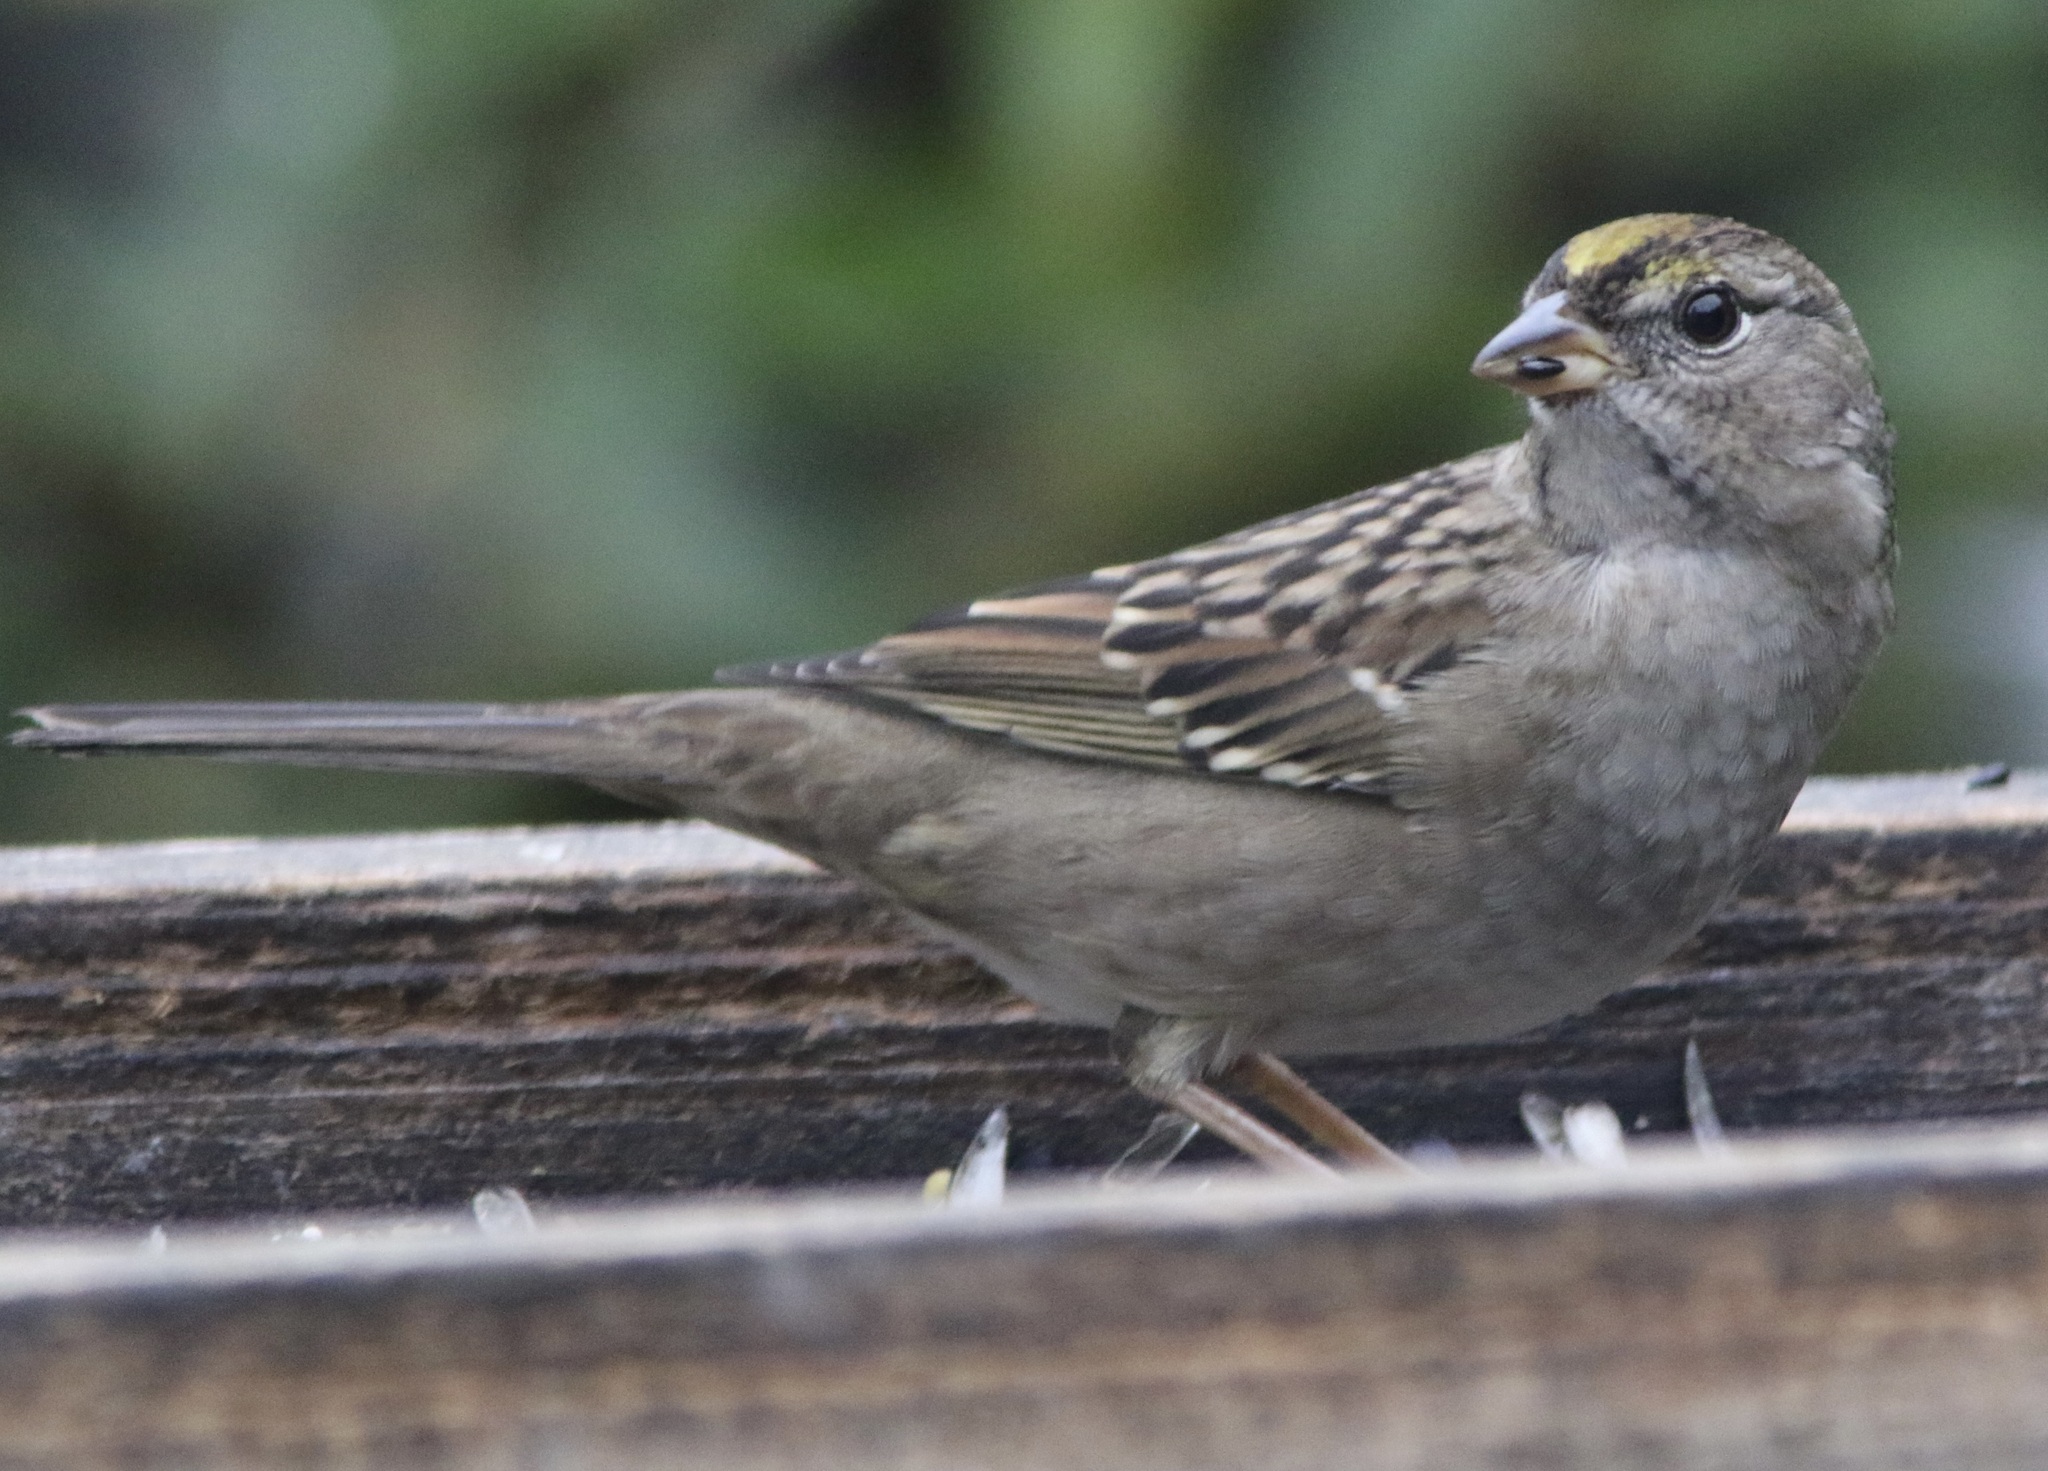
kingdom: Animalia
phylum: Chordata
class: Aves
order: Passeriformes
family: Passerellidae
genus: Zonotrichia
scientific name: Zonotrichia atricapilla
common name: Golden-crowned sparrow
